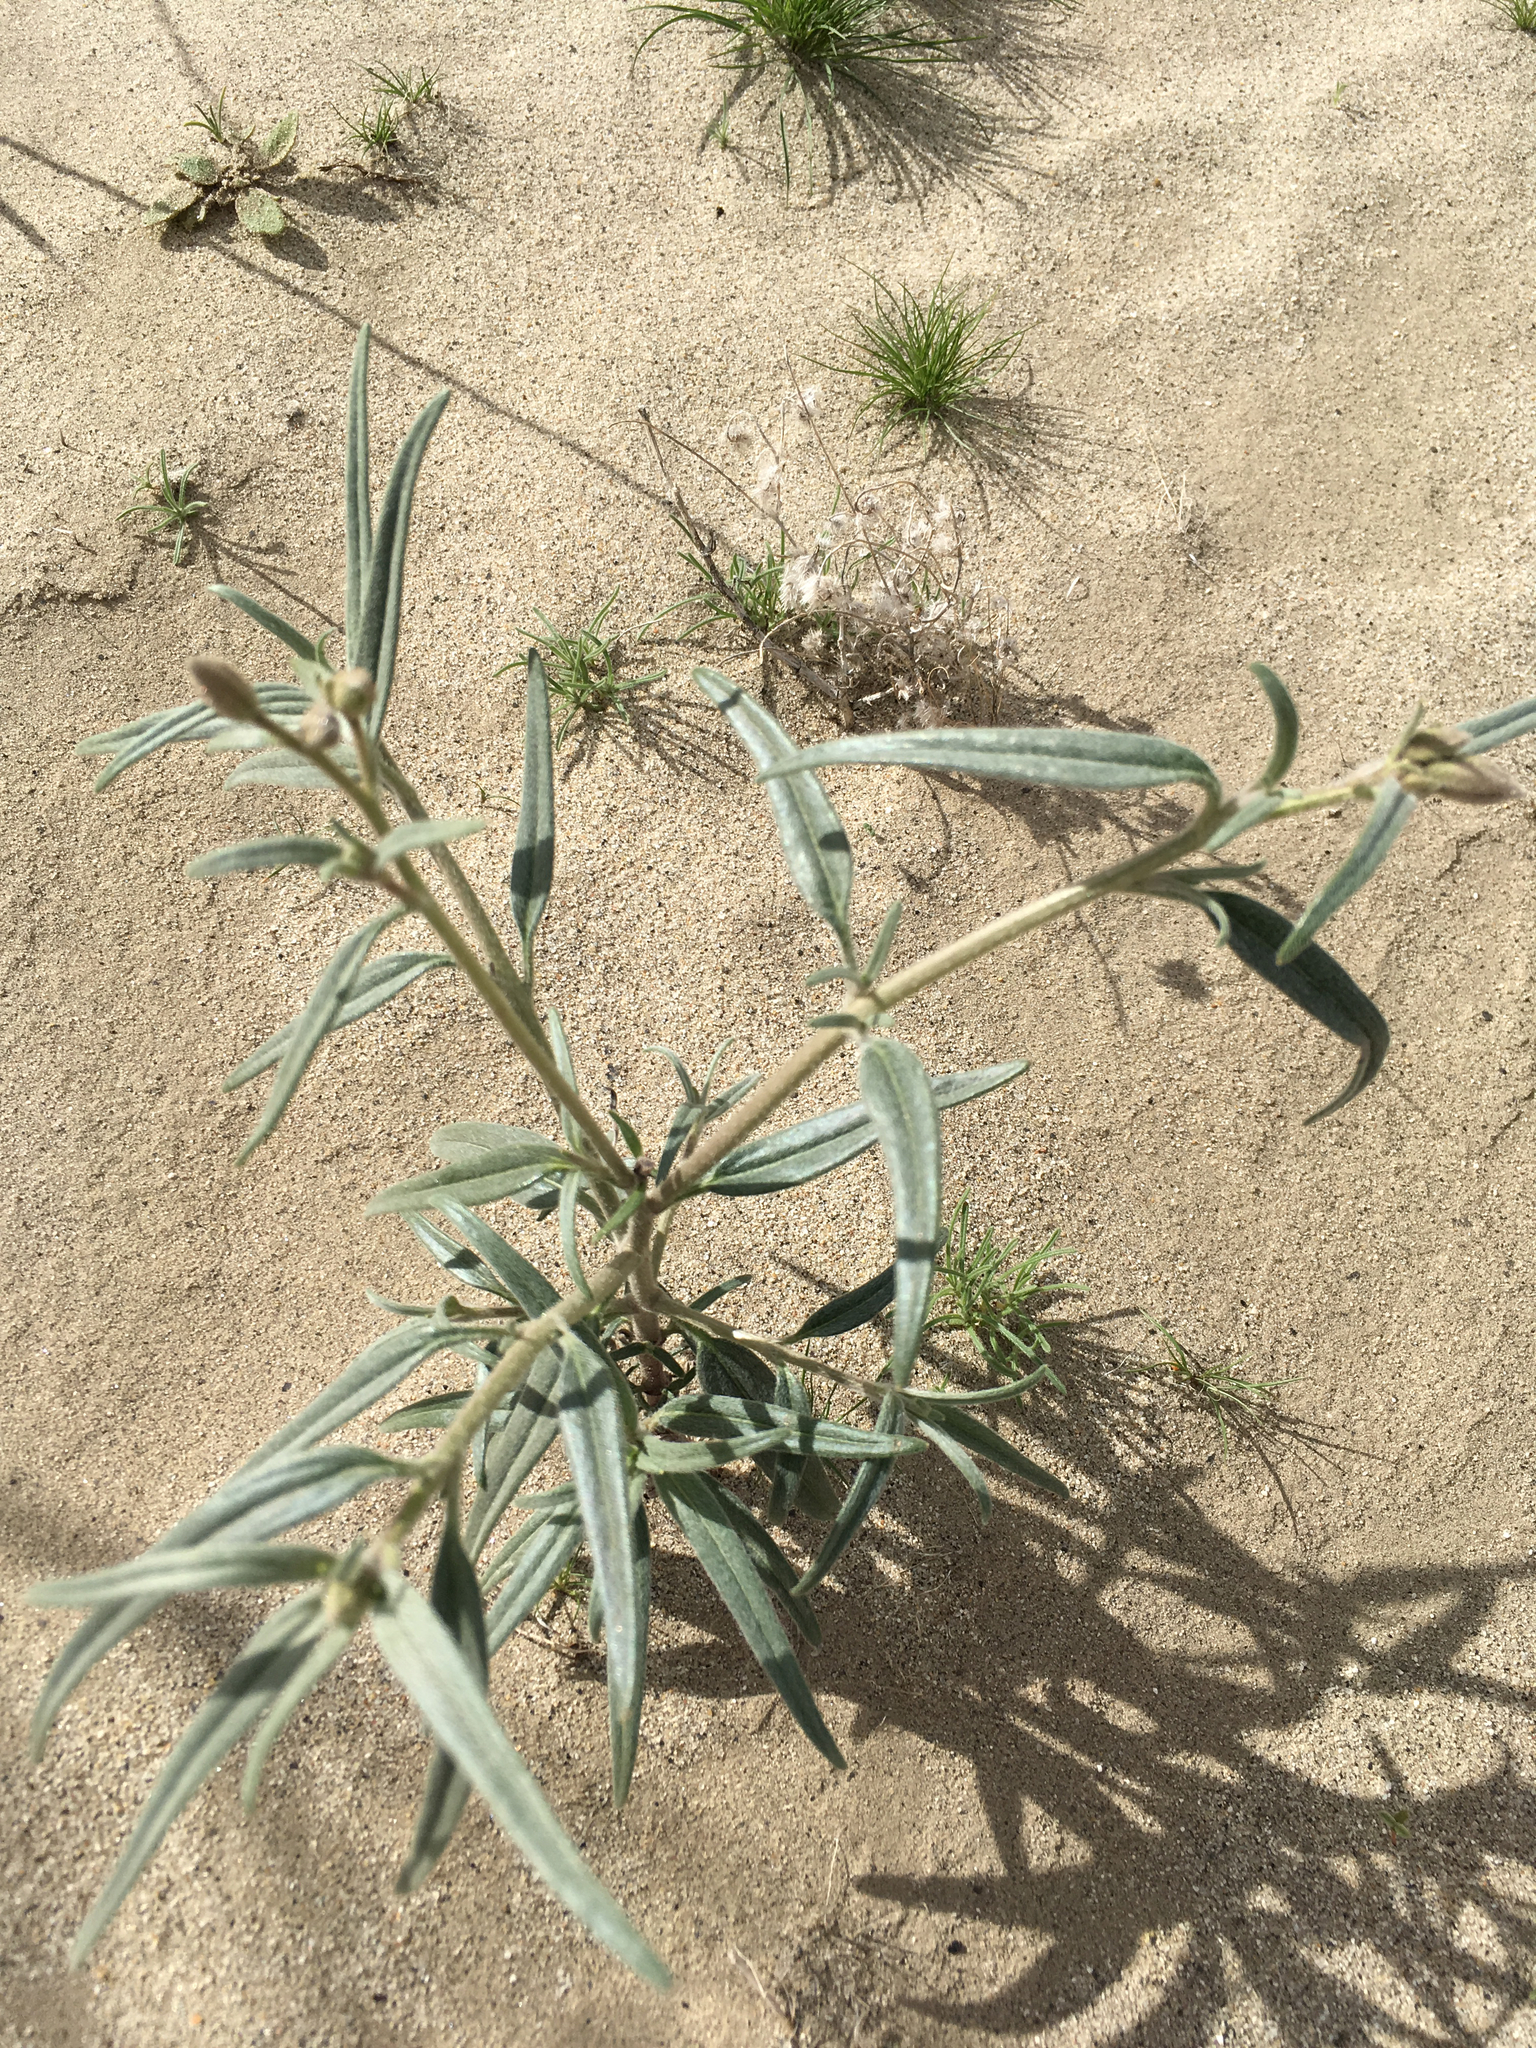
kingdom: Plantae
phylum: Tracheophyta
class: Magnoliopsida
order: Asterales
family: Asteraceae
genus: Palafoxia
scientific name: Palafoxia arida
